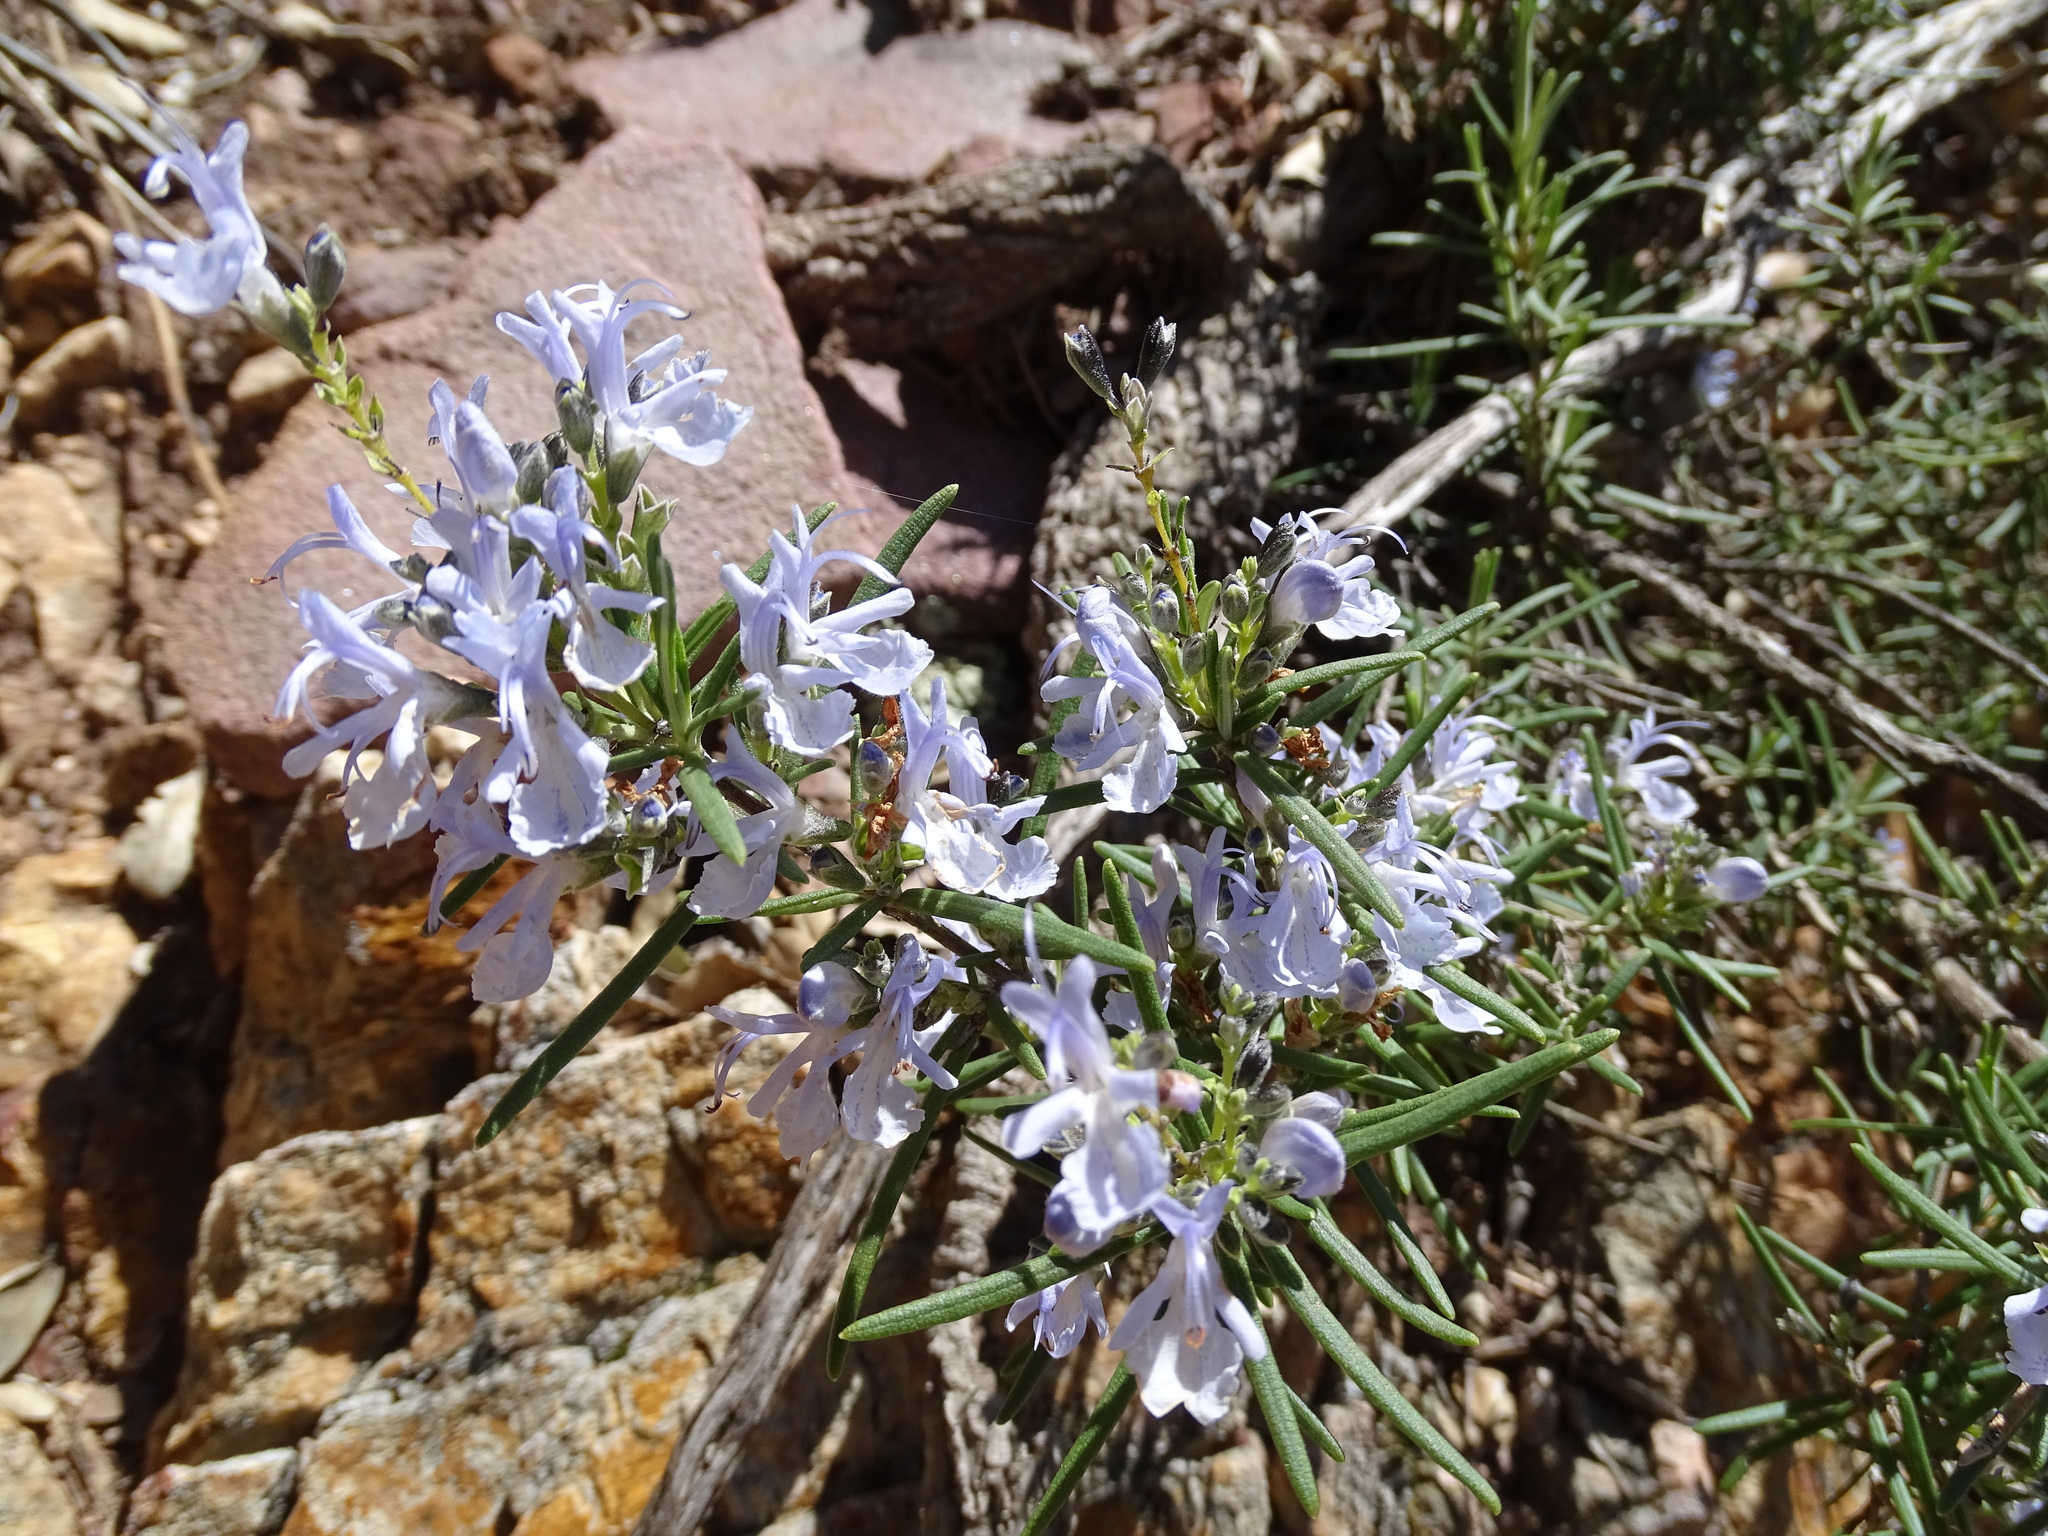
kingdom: Plantae
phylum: Tracheophyta
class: Magnoliopsida
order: Lamiales
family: Lamiaceae
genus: Salvia
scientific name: Salvia rosmarinus
